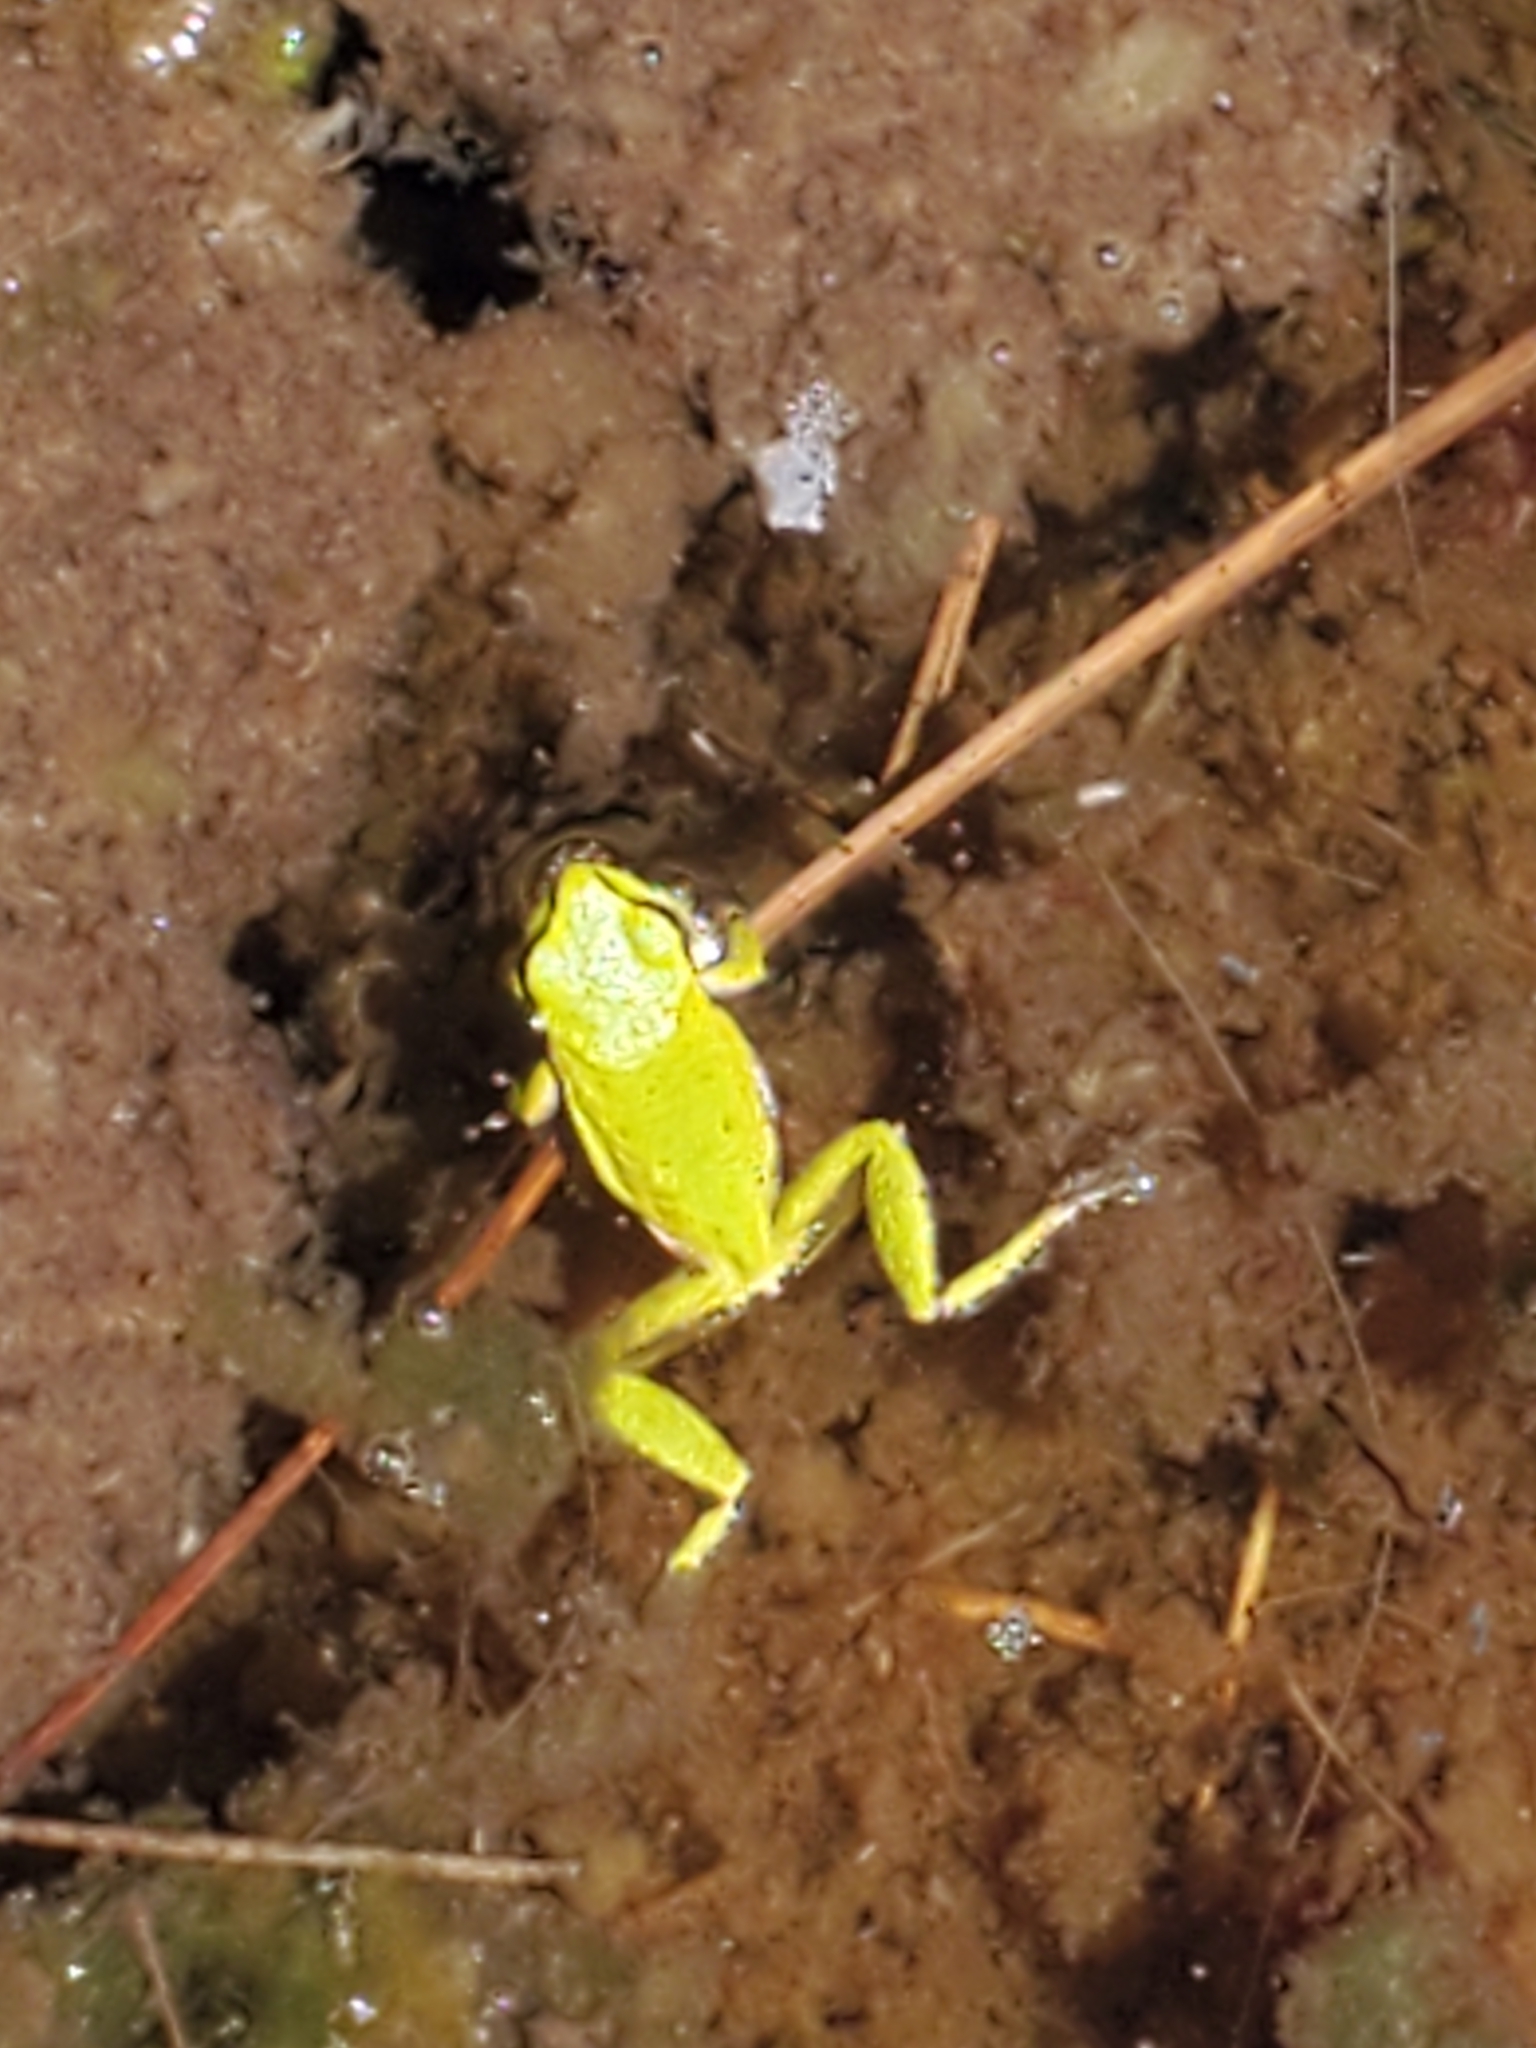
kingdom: Animalia
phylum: Chordata
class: Amphibia
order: Anura
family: Hylidae
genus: Pseudacris
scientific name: Pseudacris regilla
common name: Pacific chorus frog
